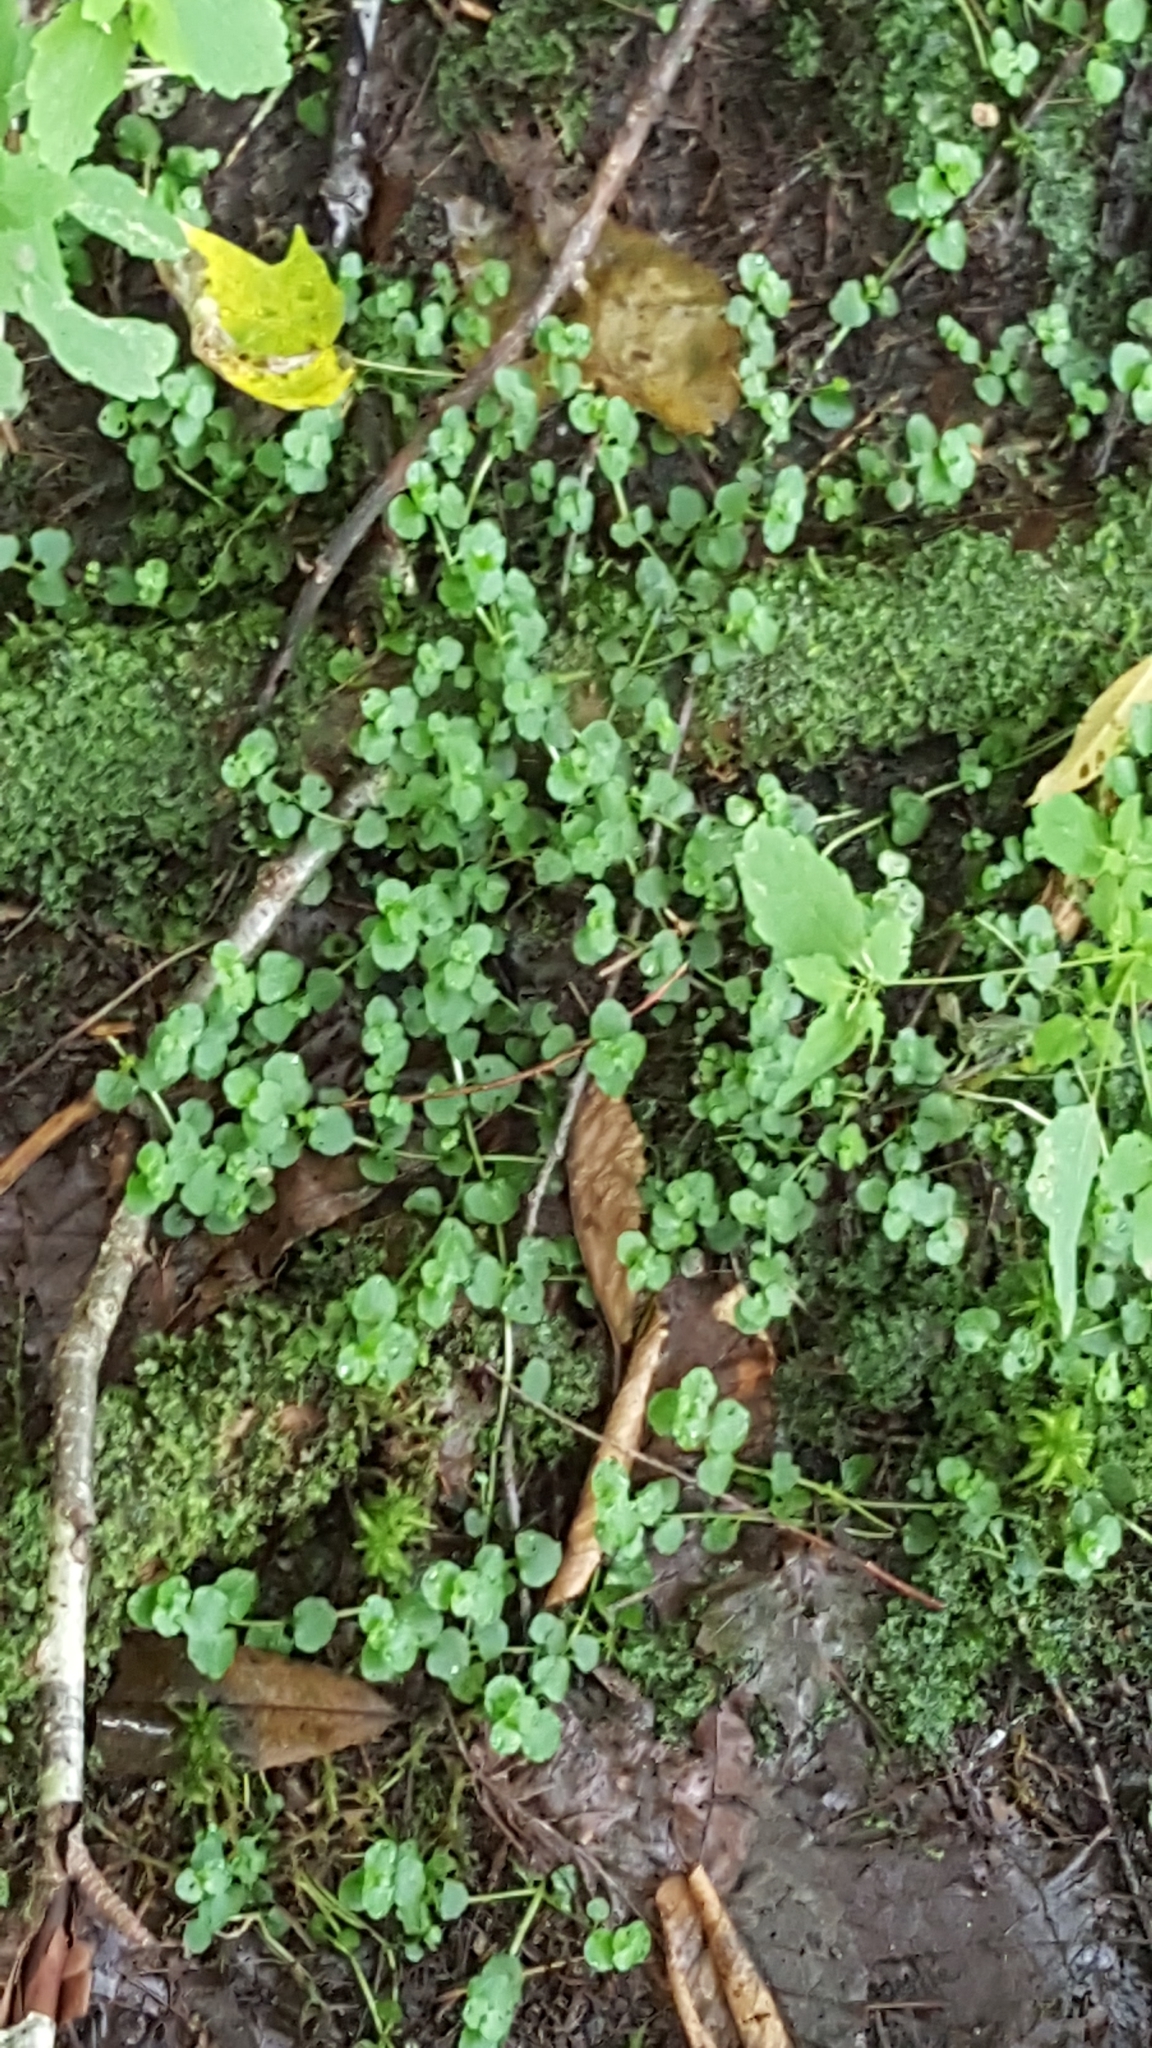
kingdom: Plantae
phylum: Tracheophyta
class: Magnoliopsida
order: Saxifragales
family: Saxifragaceae
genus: Chrysosplenium
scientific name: Chrysosplenium americanum
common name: American golden-saxifrage
